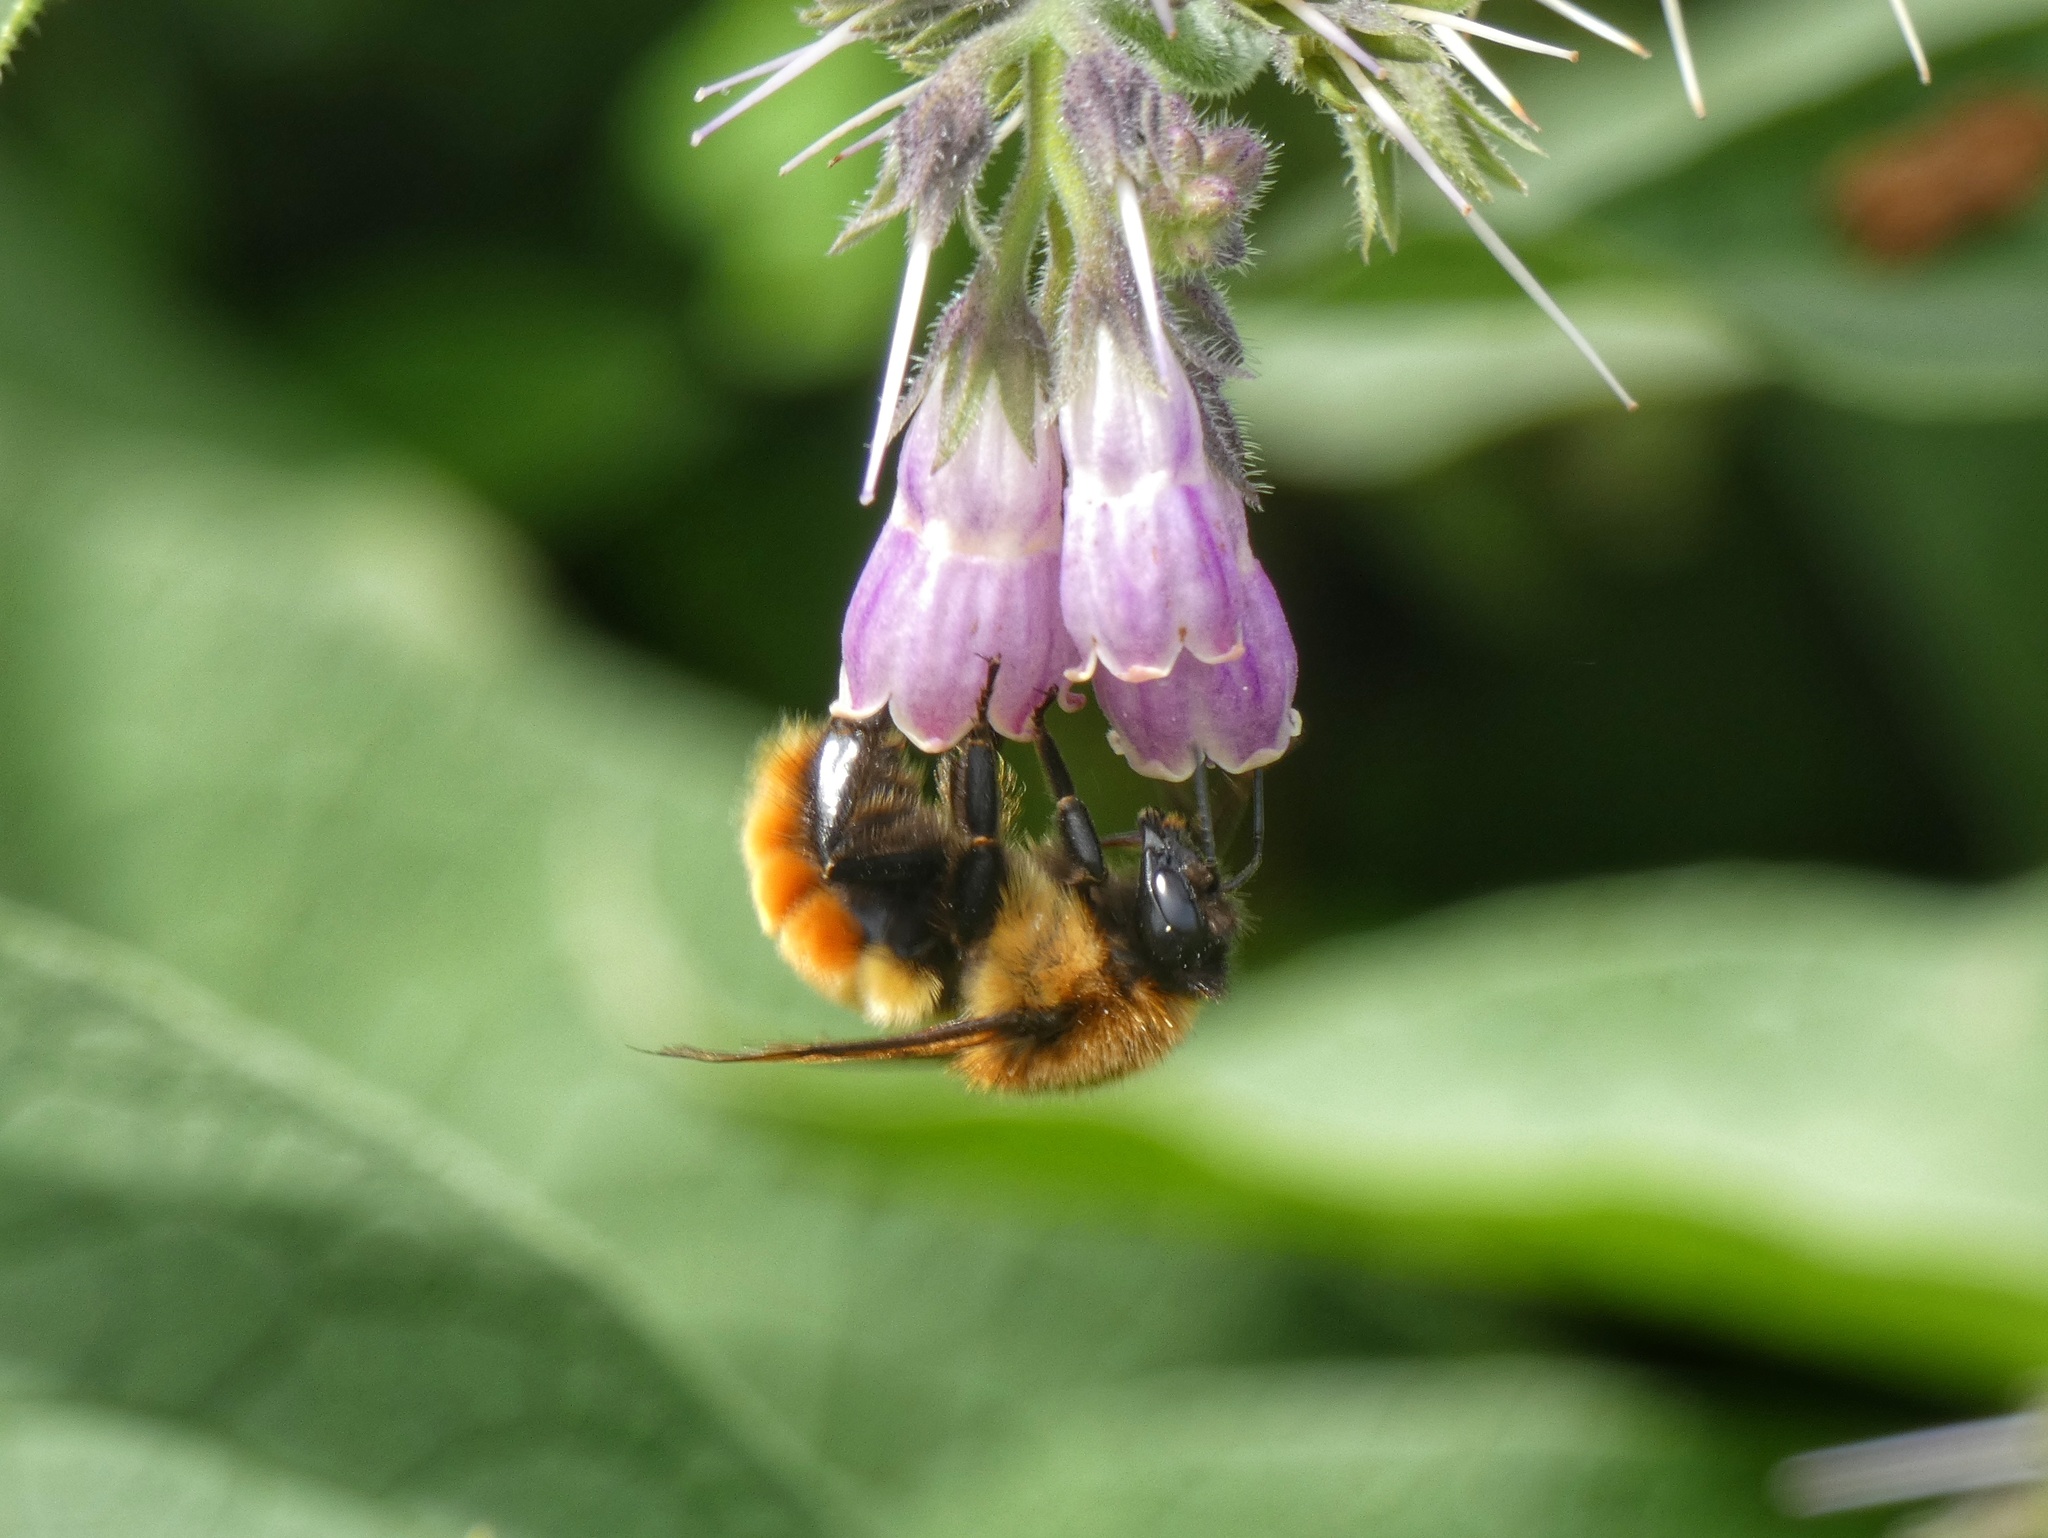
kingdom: Animalia
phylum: Arthropoda
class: Insecta
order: Hymenoptera
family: Apidae
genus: Bombus
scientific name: Bombus ephippiatus
